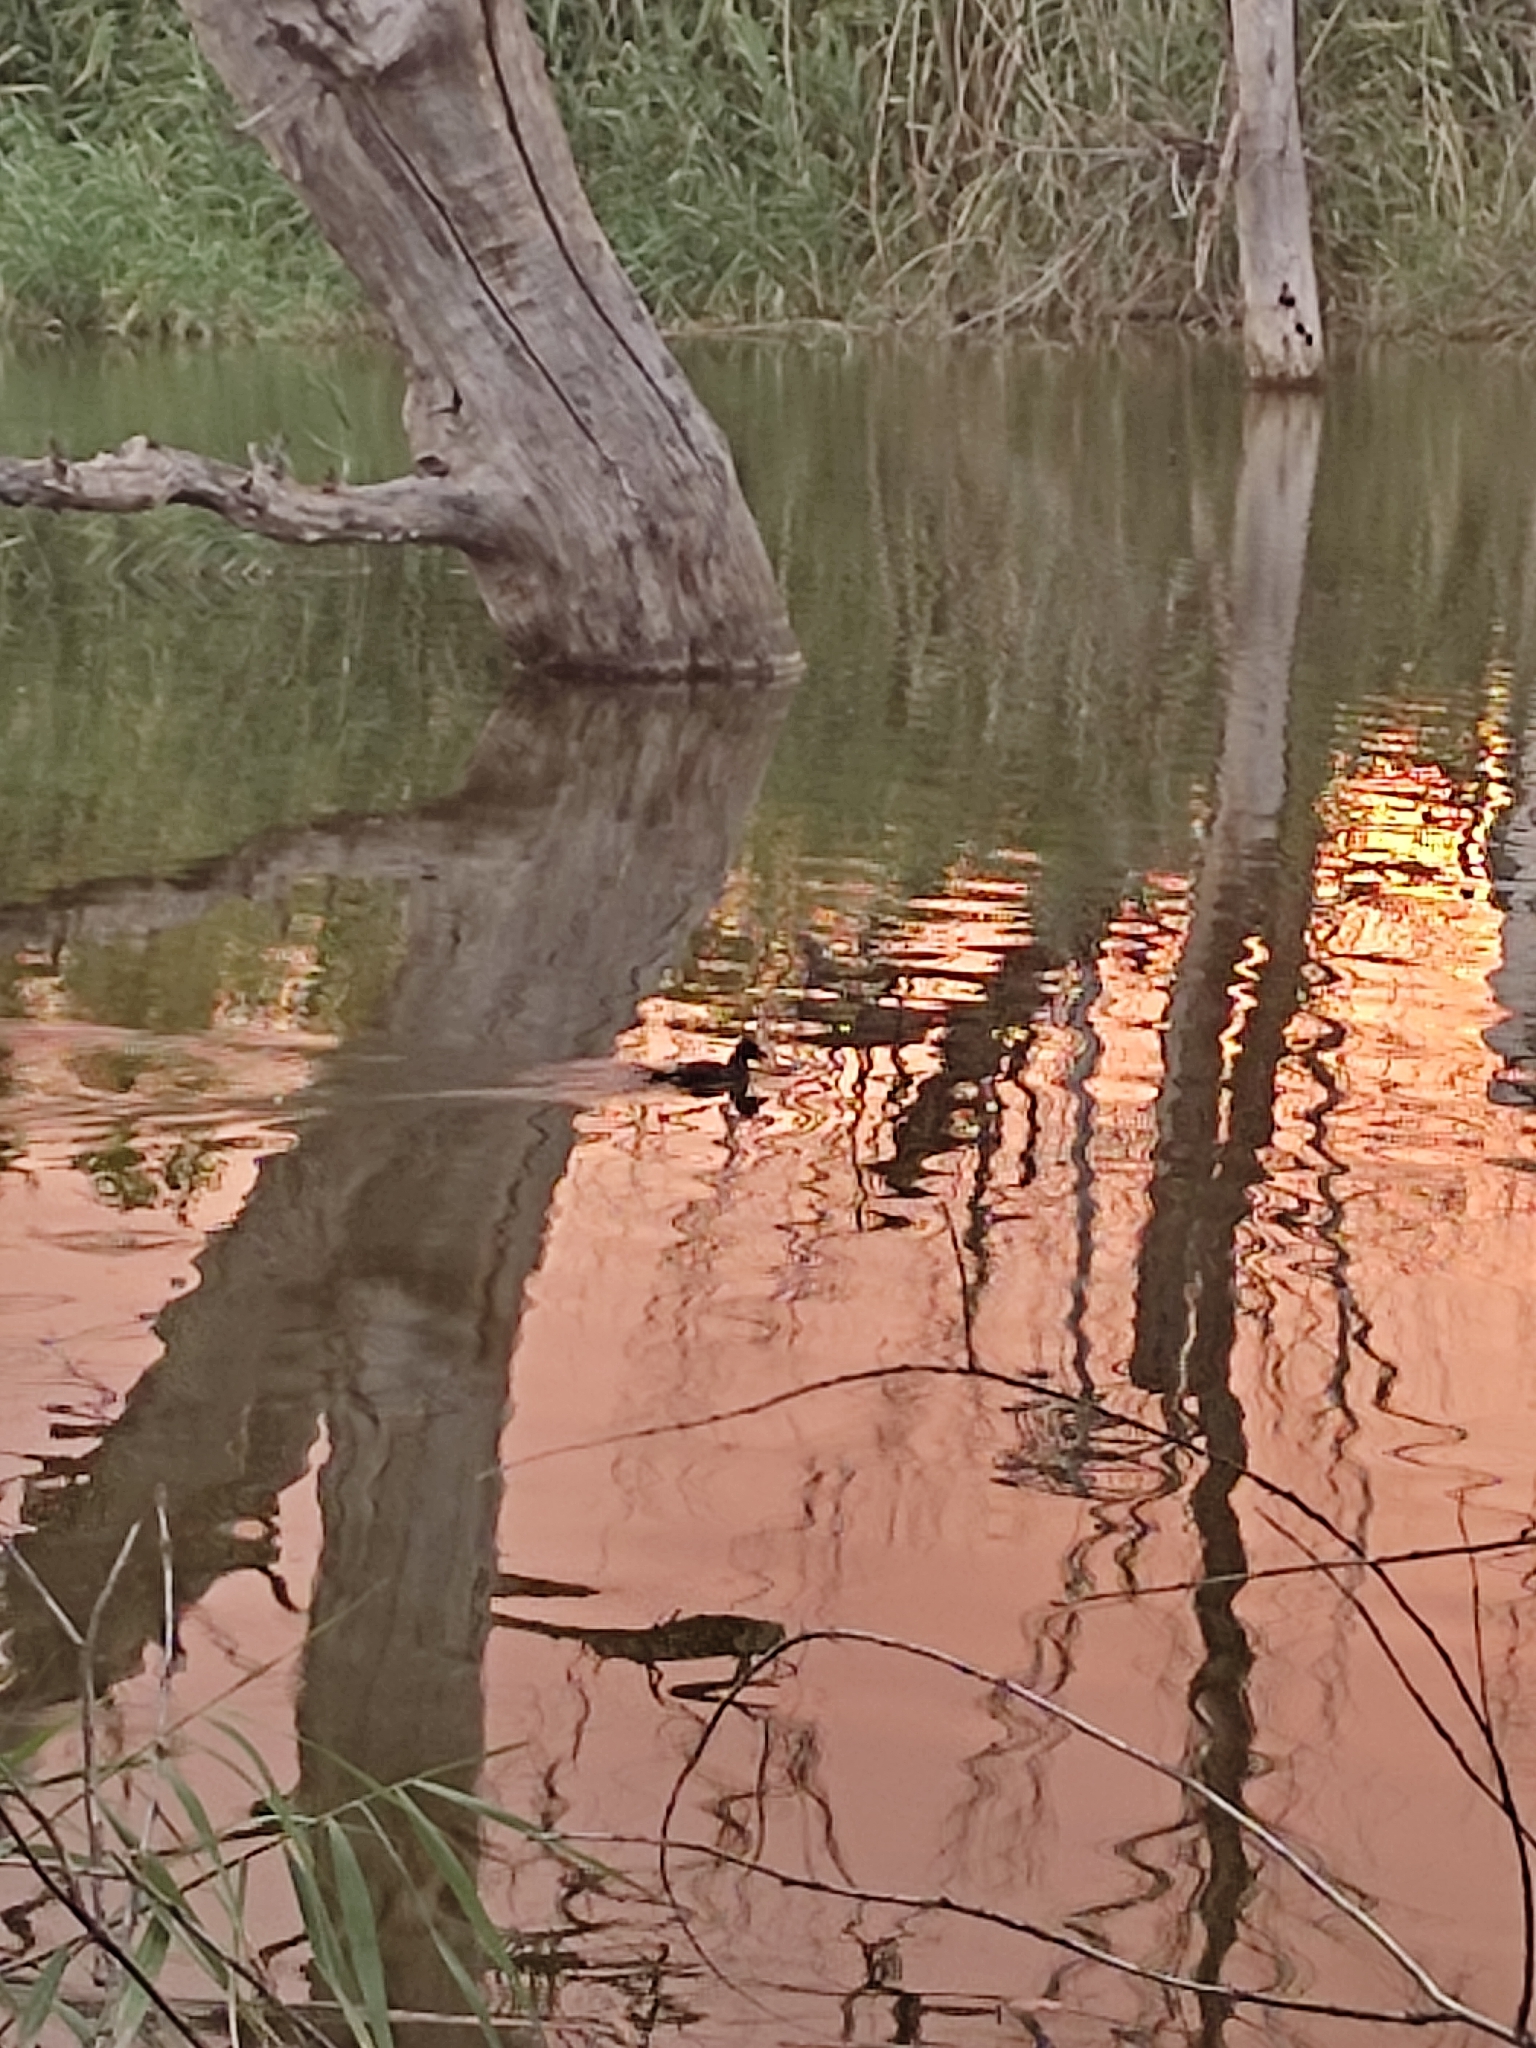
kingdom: Animalia
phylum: Chordata
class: Aves
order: Gruiformes
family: Rallidae
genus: Fulica
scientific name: Fulica atra
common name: Eurasian coot
